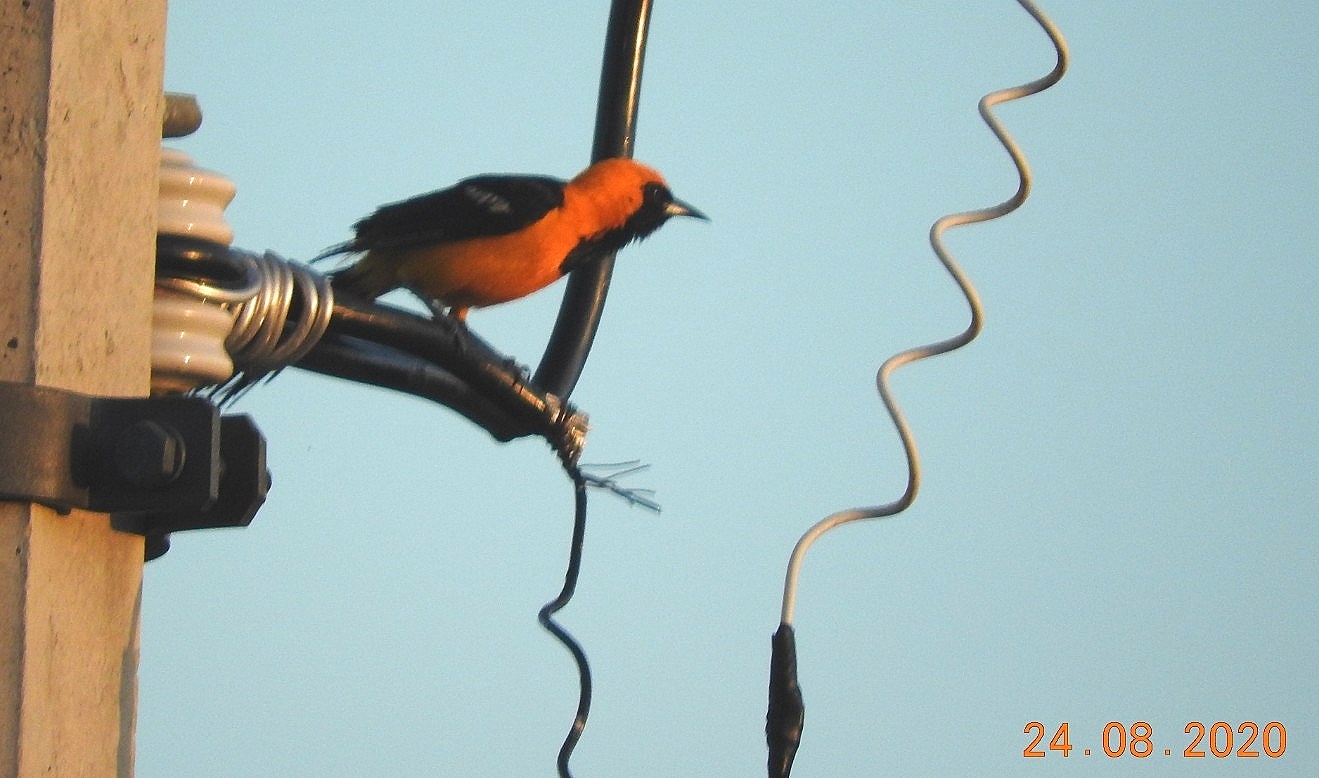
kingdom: Animalia
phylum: Chordata
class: Aves
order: Passeriformes
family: Icteridae
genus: Icterus
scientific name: Icterus cucullatus
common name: Hooded oriole
